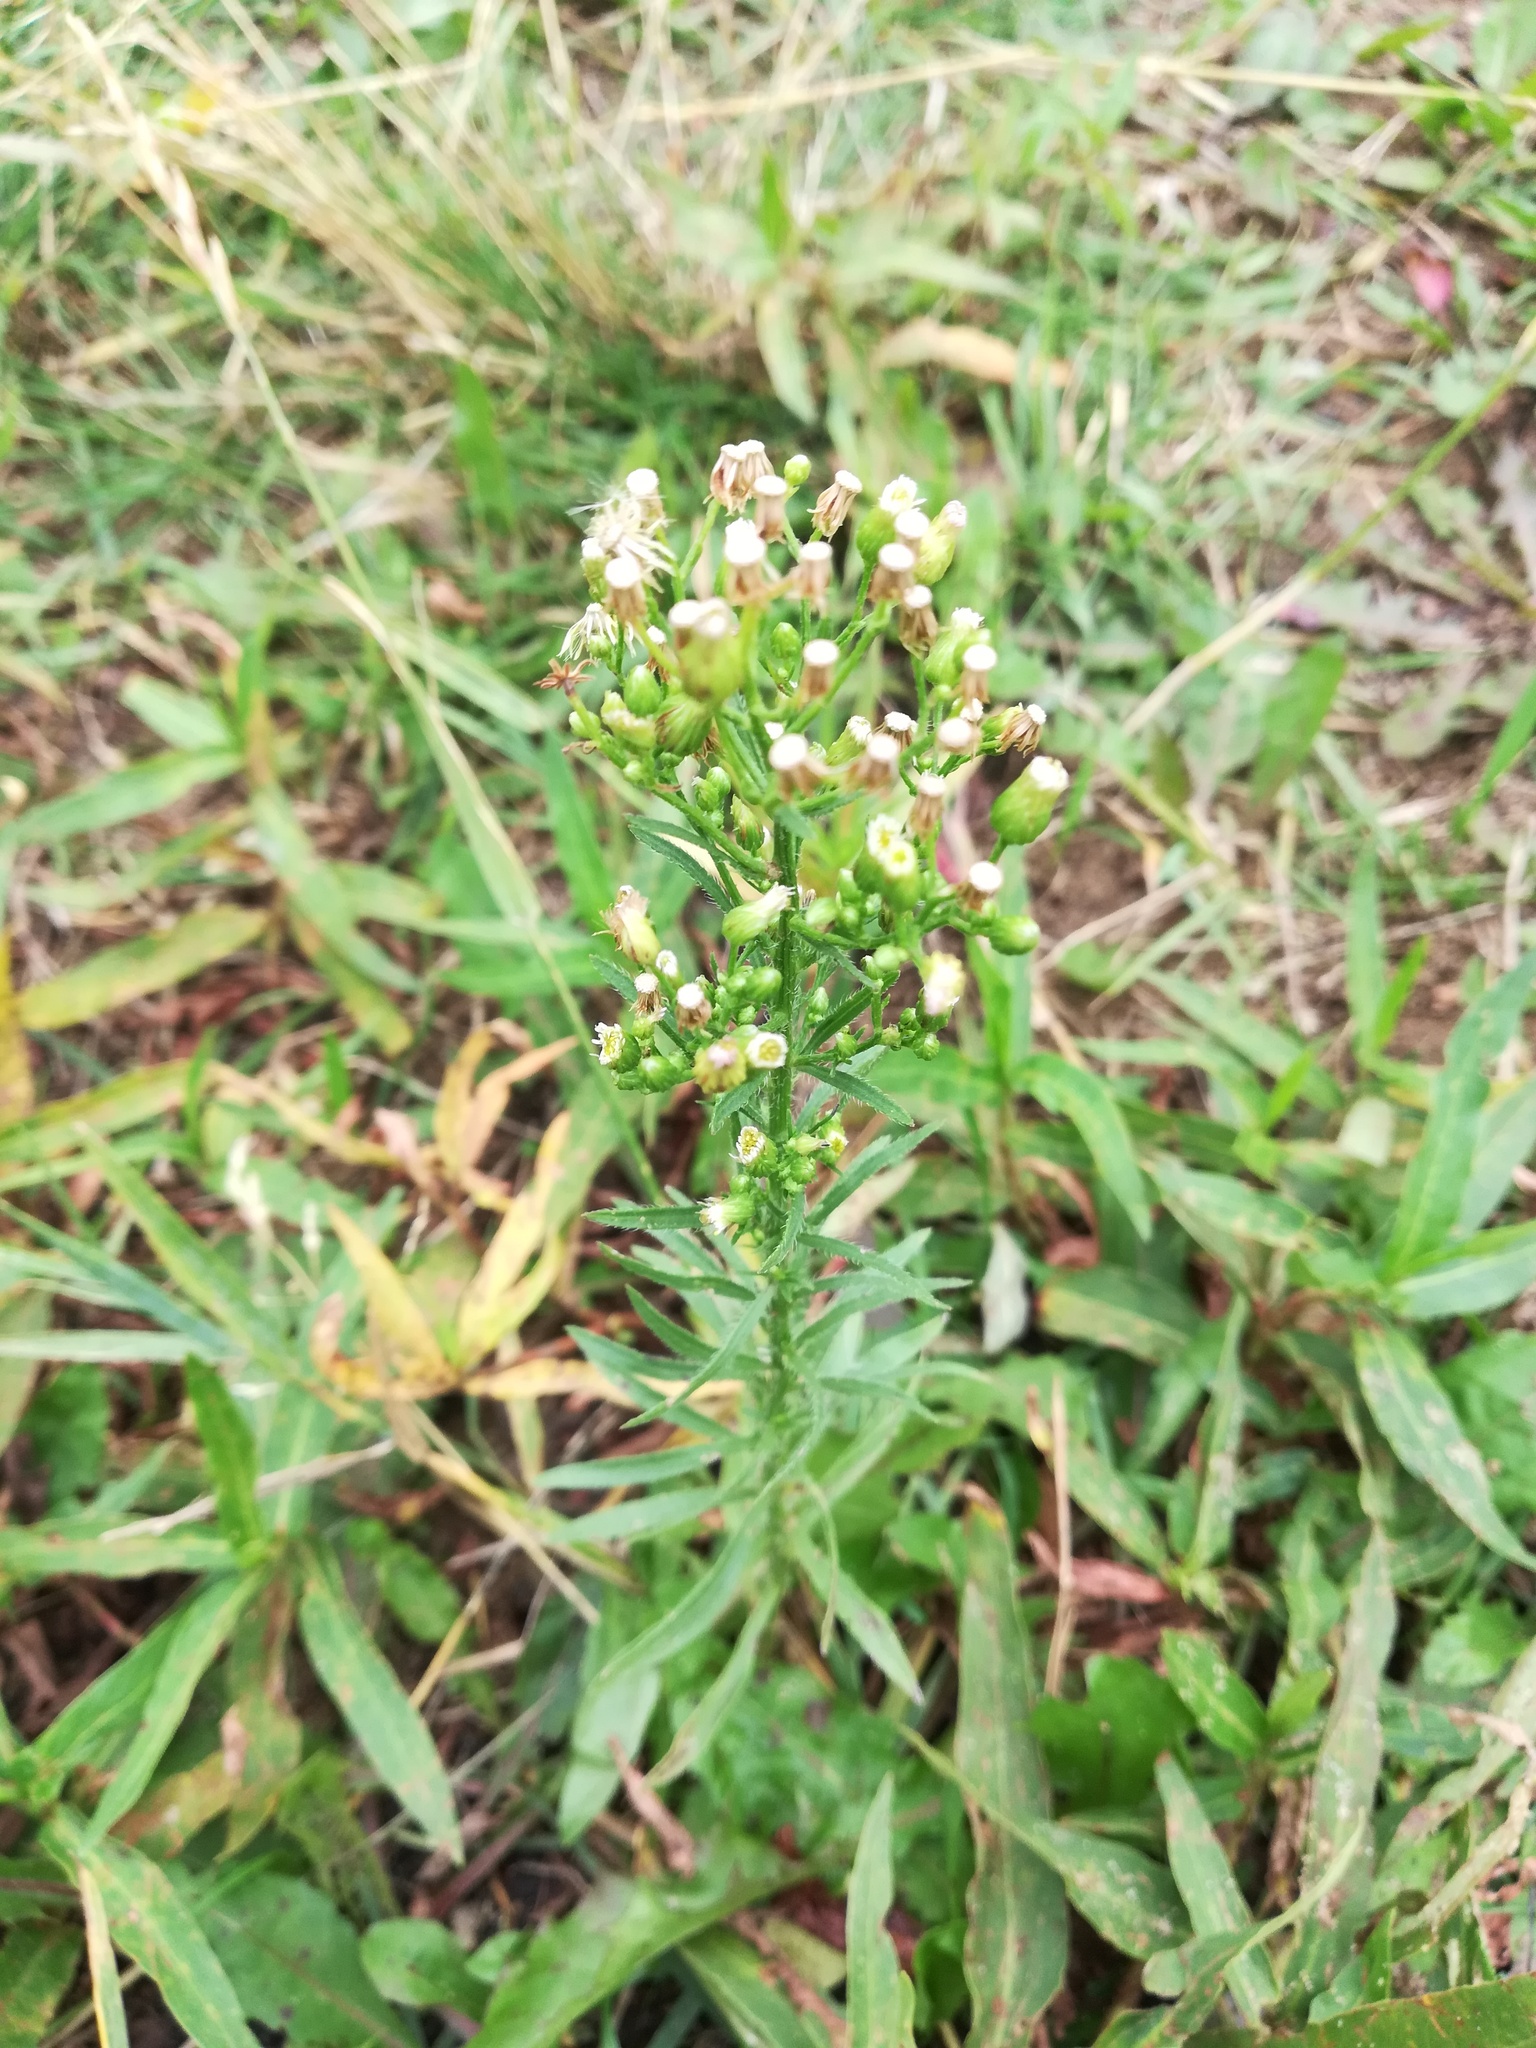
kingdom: Plantae
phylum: Tracheophyta
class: Magnoliopsida
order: Asterales
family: Asteraceae
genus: Erigeron
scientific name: Erigeron canadensis
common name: Canadian fleabane
